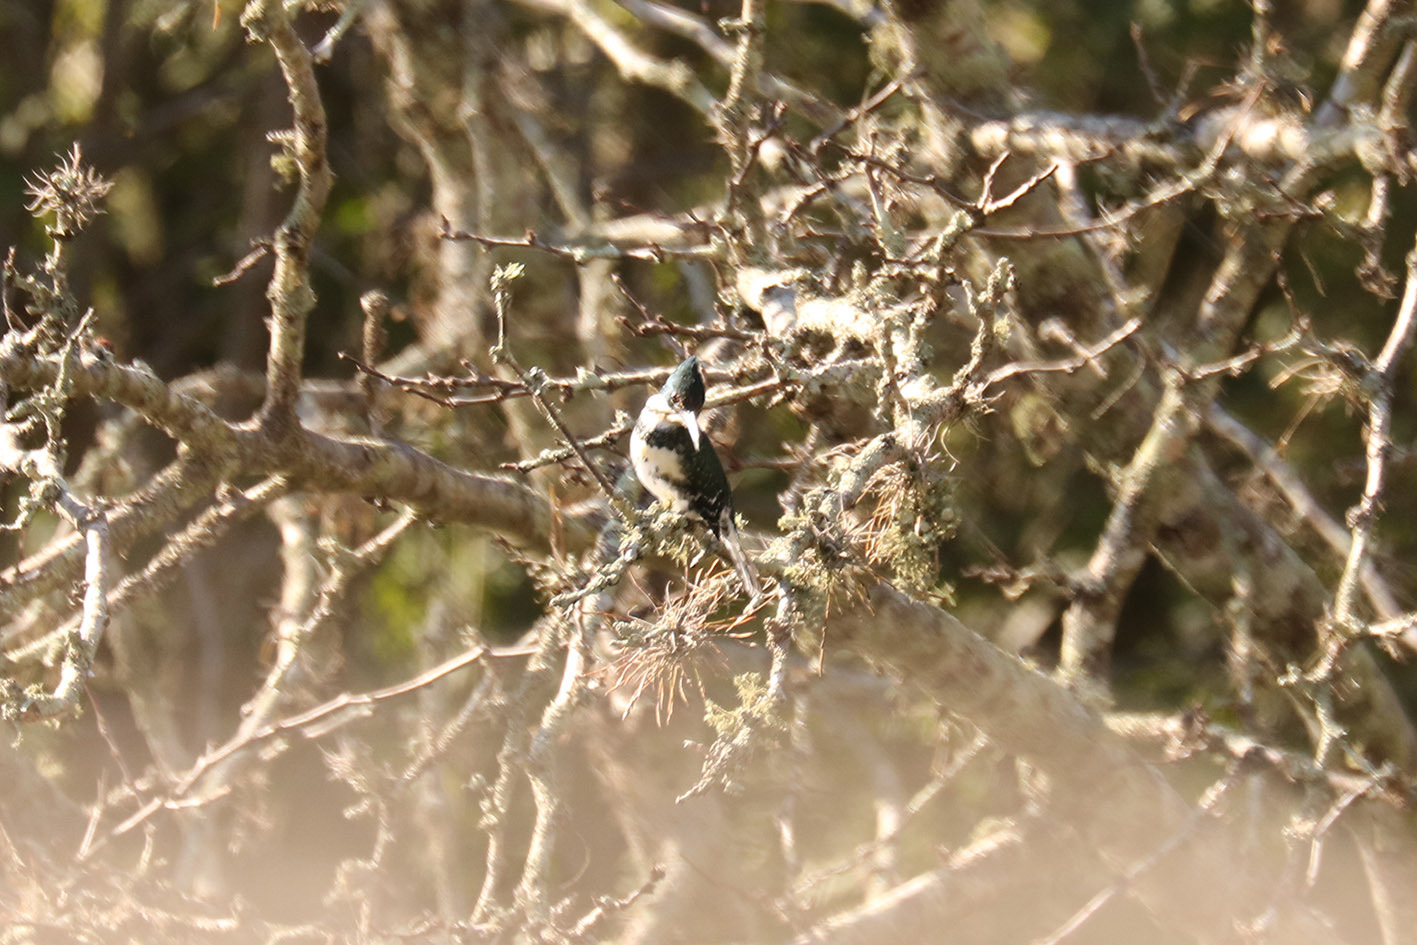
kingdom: Animalia
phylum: Chordata
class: Aves
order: Coraciiformes
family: Alcedinidae
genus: Chloroceryle
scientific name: Chloroceryle americana
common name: Green kingfisher
